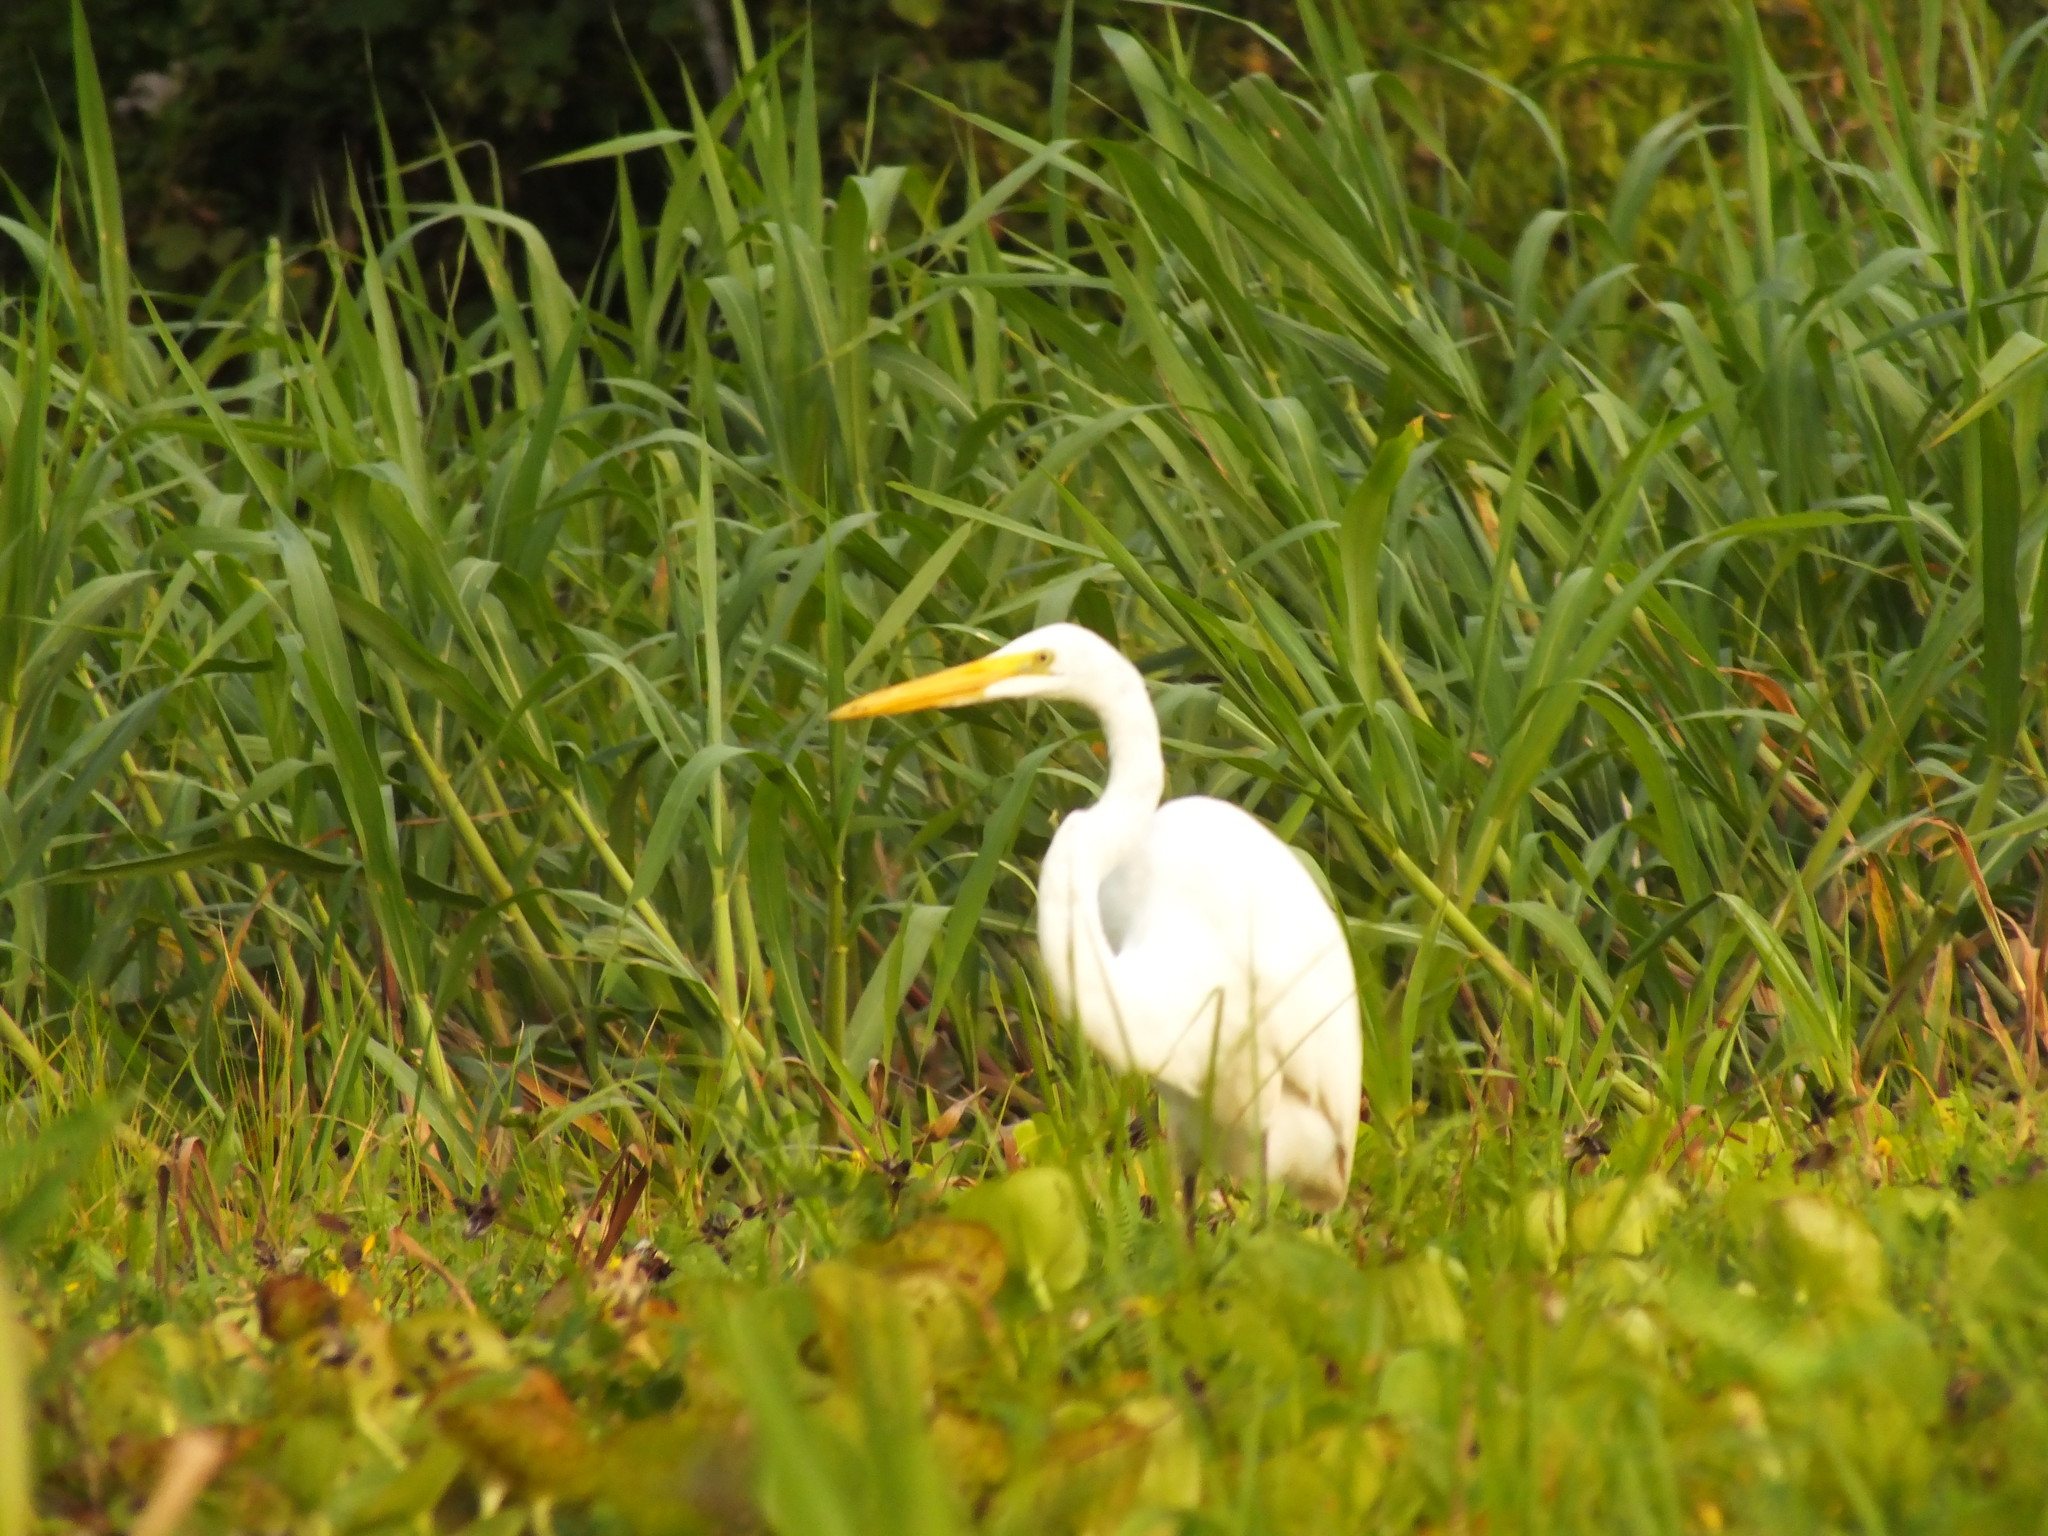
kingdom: Animalia
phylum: Chordata
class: Aves
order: Pelecaniformes
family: Ardeidae
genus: Ardea
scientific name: Ardea alba
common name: Great egret
